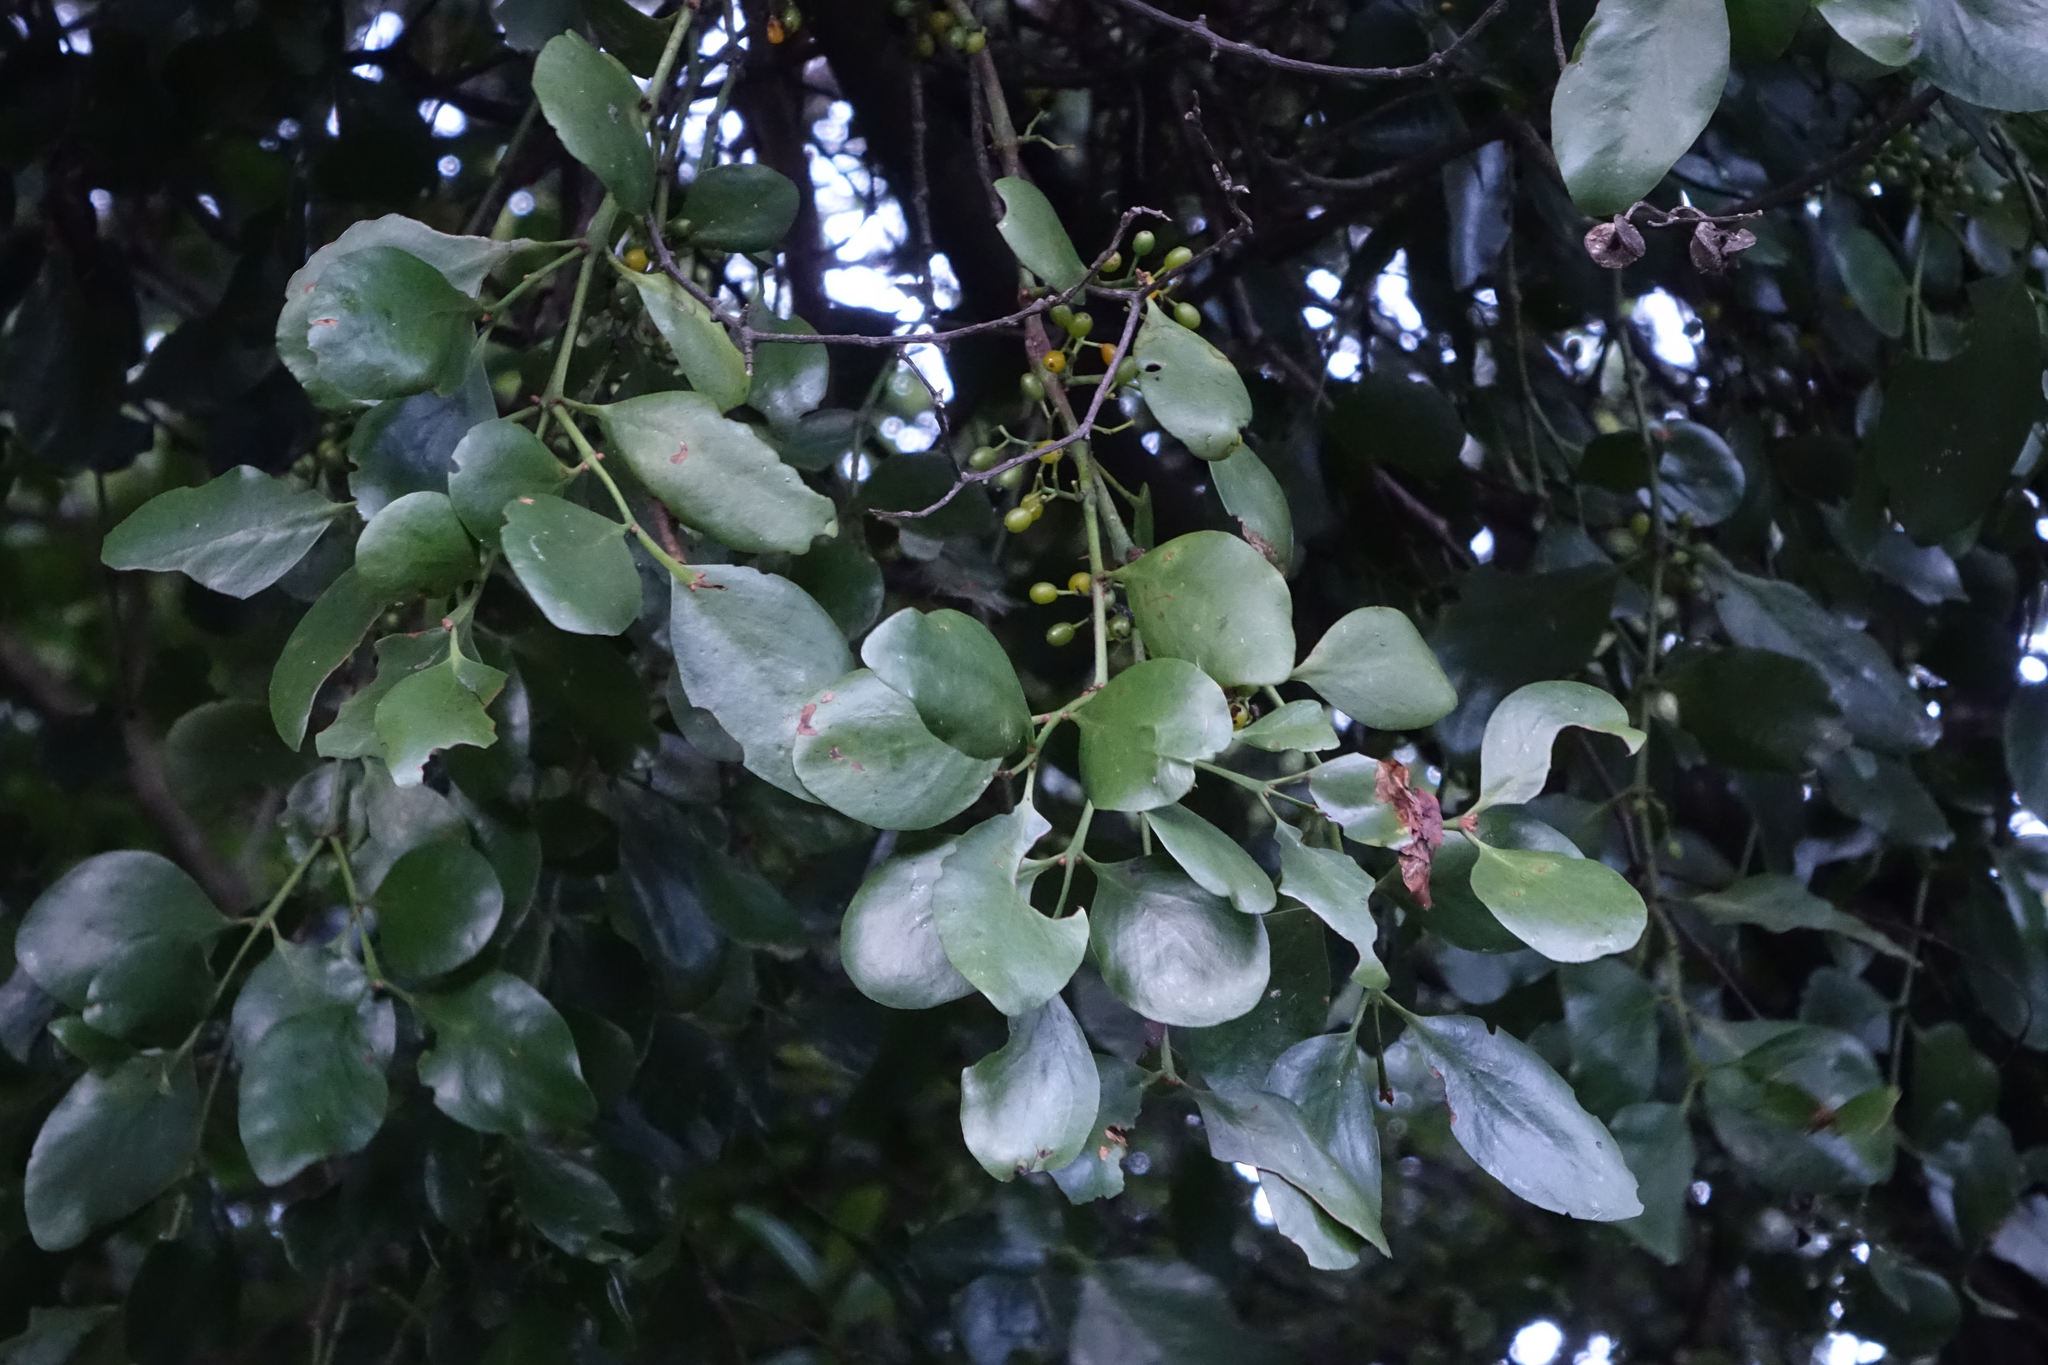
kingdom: Plantae
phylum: Tracheophyta
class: Magnoliopsida
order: Santalales
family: Loranthaceae
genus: Ileostylus
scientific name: Ileostylus micranthus
